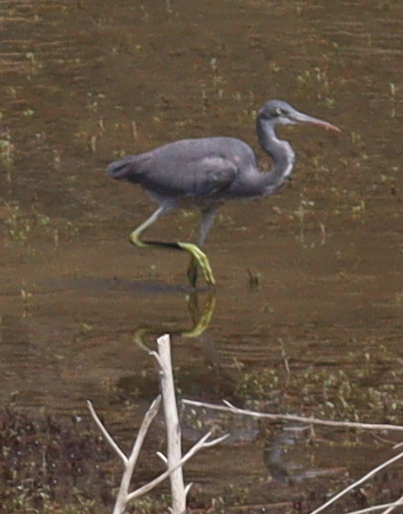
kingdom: Animalia
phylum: Chordata
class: Aves
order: Pelecaniformes
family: Ardeidae
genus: Egretta
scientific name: Egretta gularis
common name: Western reef-heron
